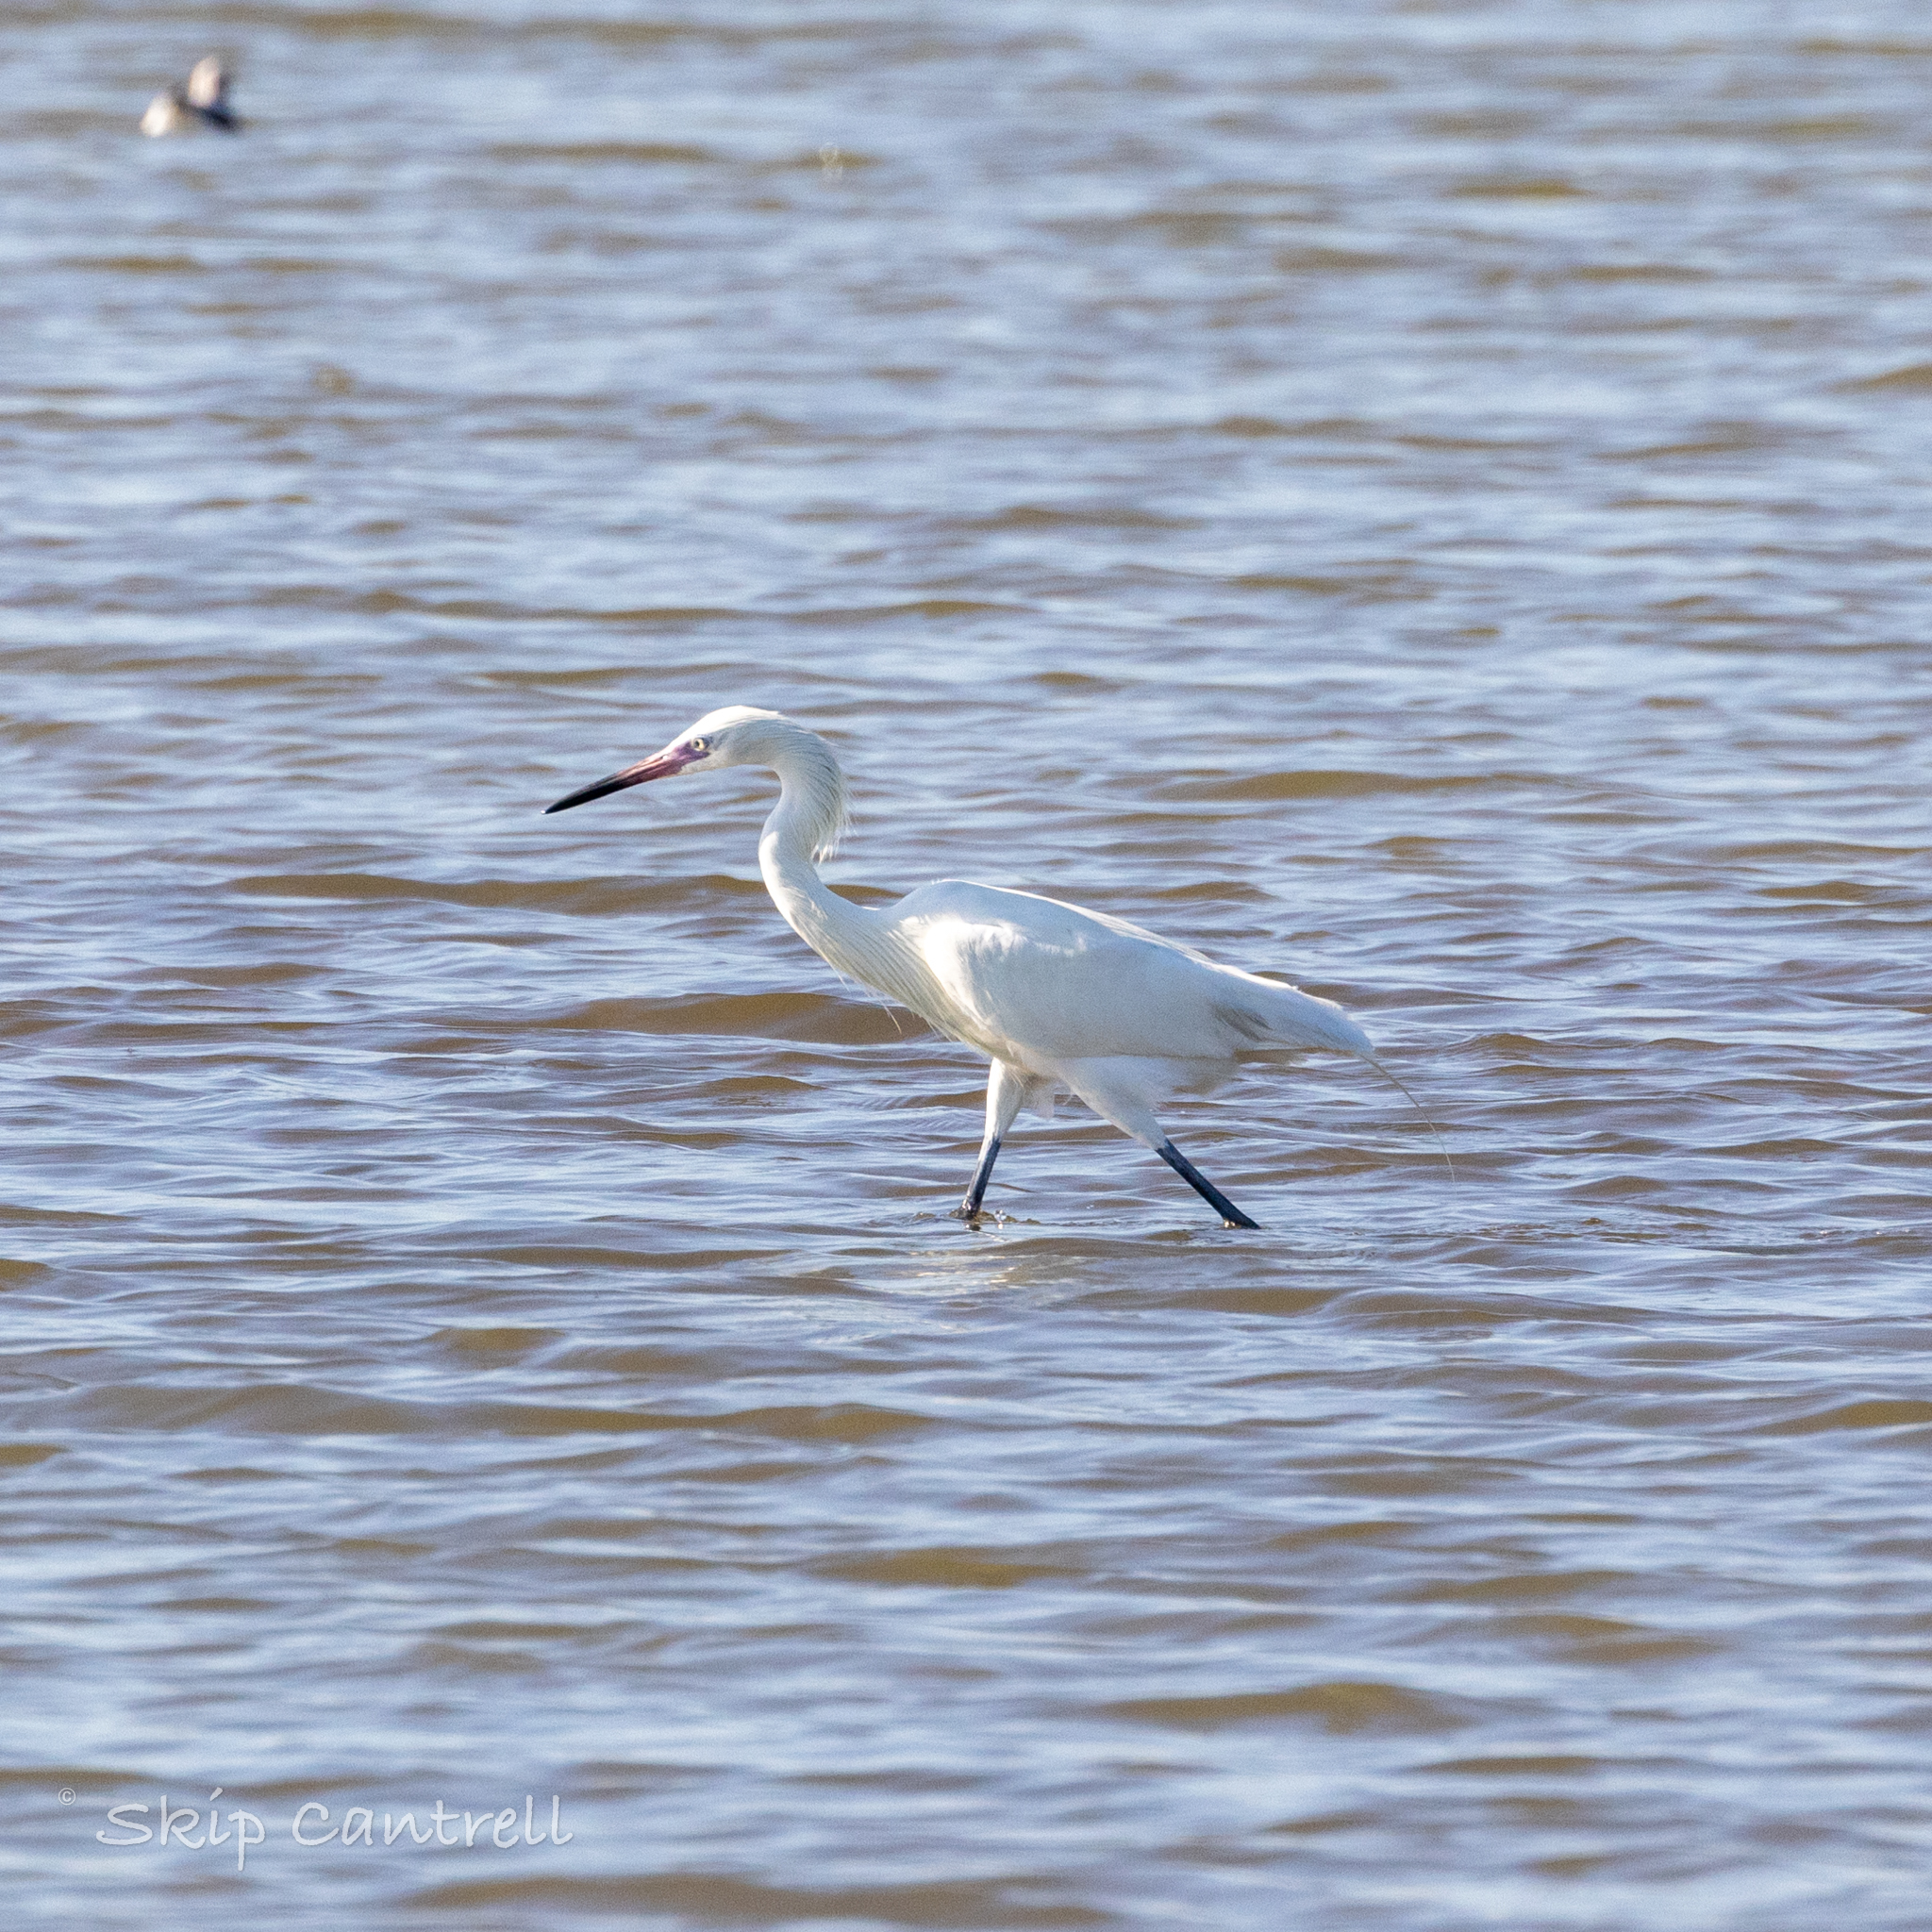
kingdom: Animalia
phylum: Chordata
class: Aves
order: Pelecaniformes
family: Ardeidae
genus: Egretta
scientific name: Egretta rufescens
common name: Reddish egret
